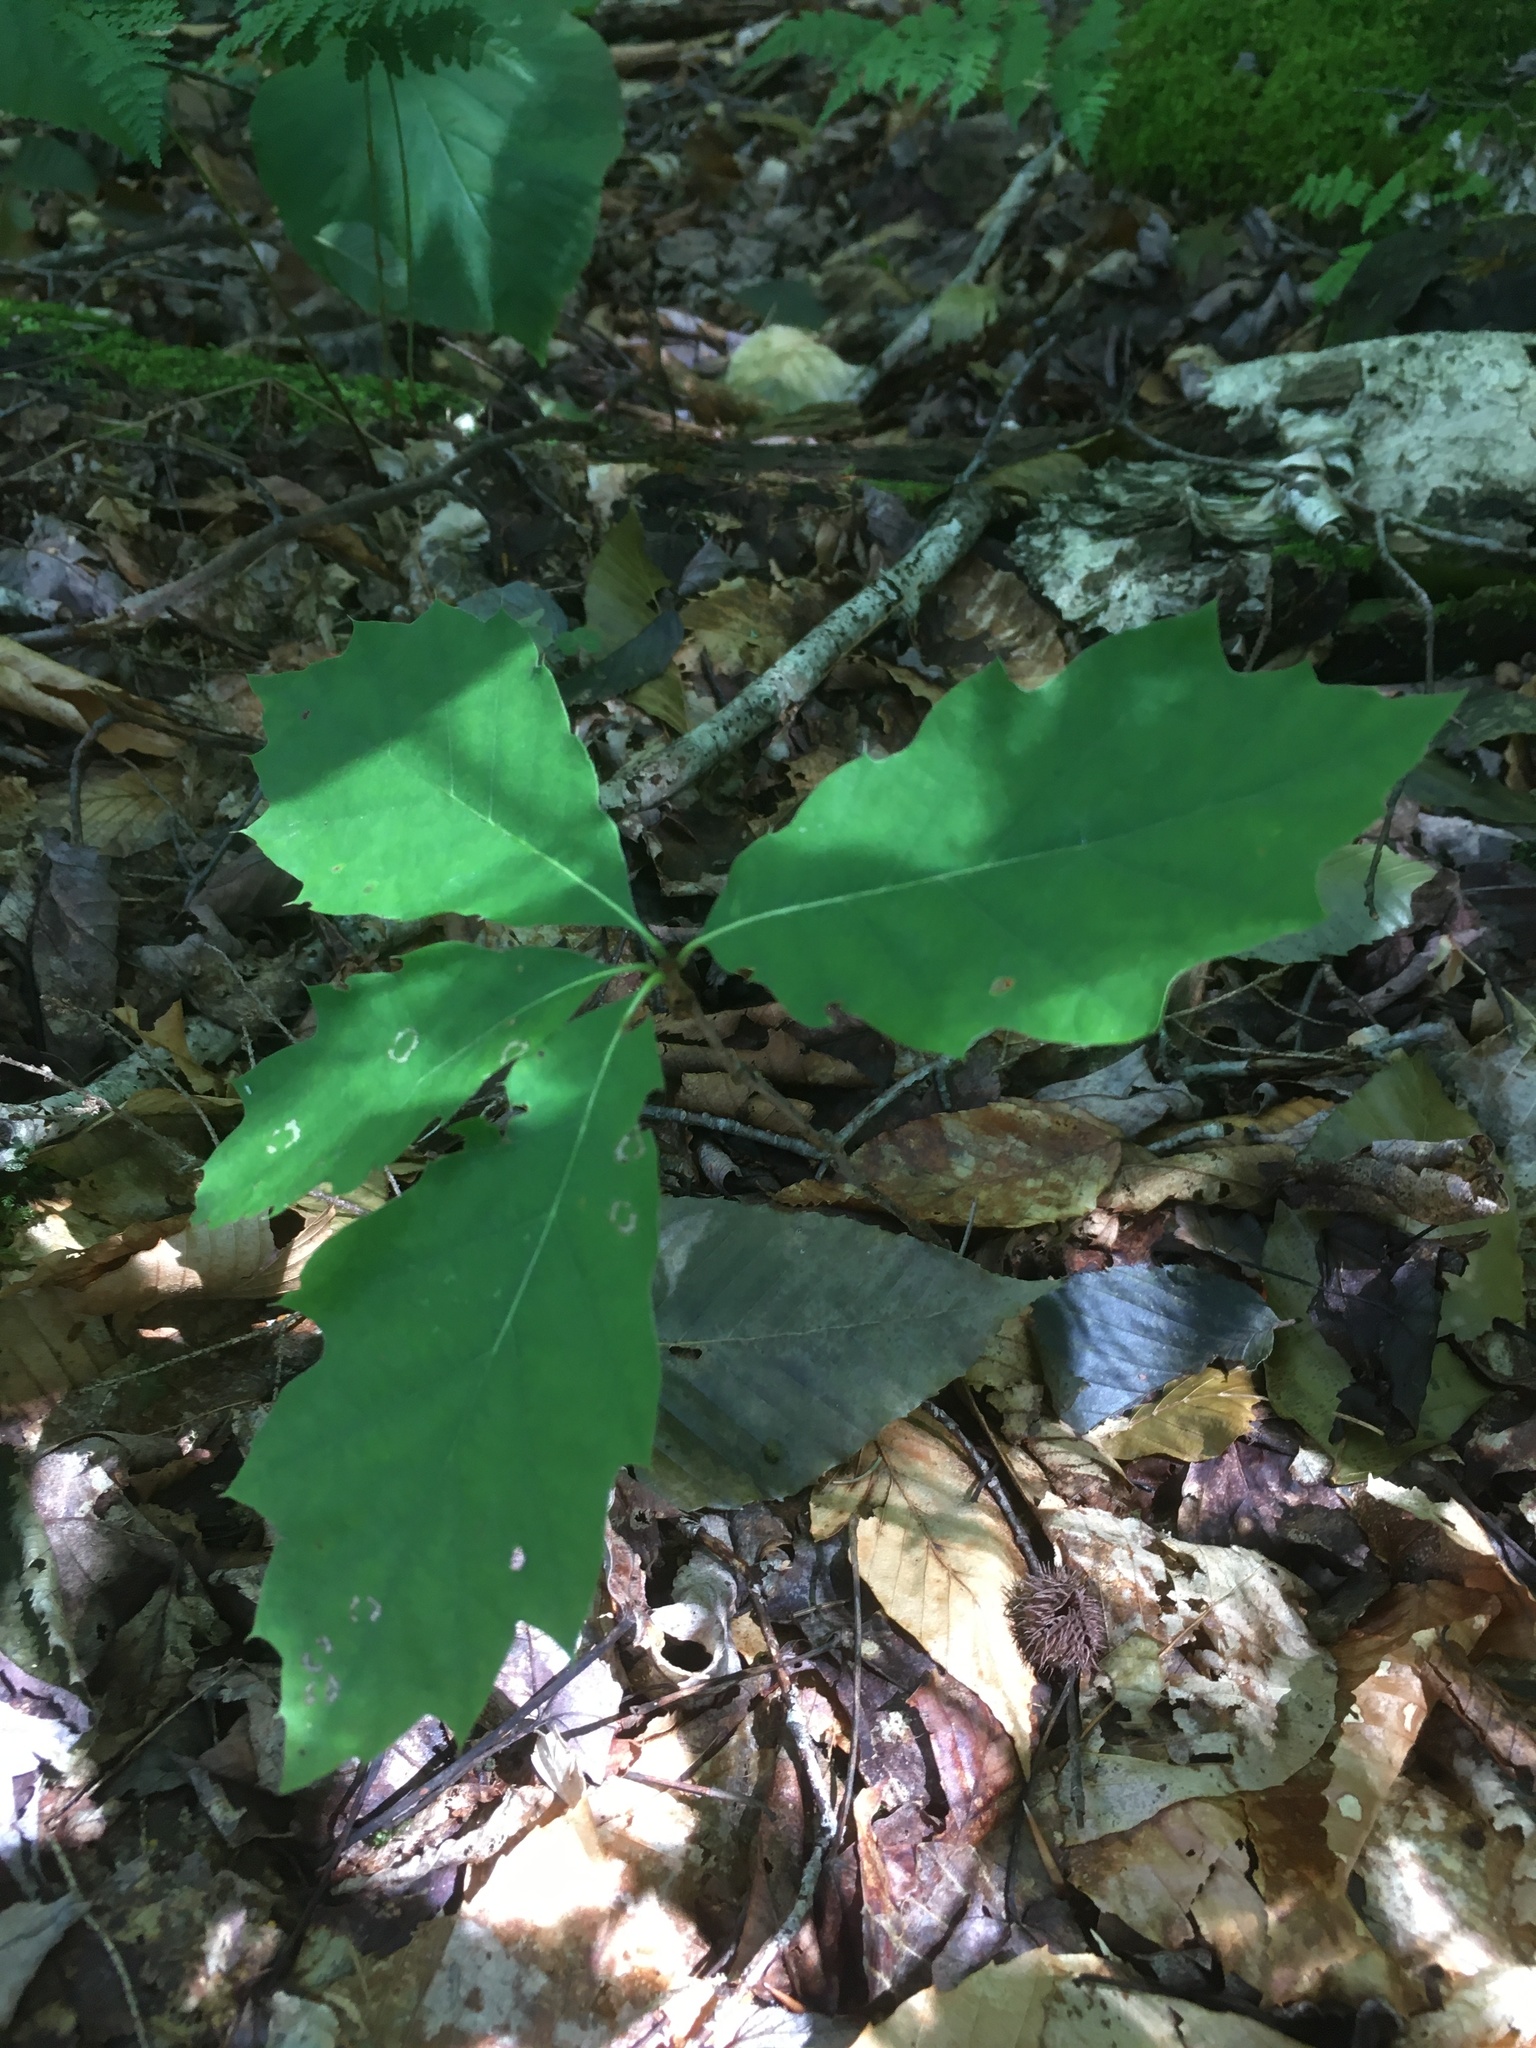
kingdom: Plantae
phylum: Tracheophyta
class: Magnoliopsida
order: Fagales
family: Fagaceae
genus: Quercus
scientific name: Quercus rubra
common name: Red oak
